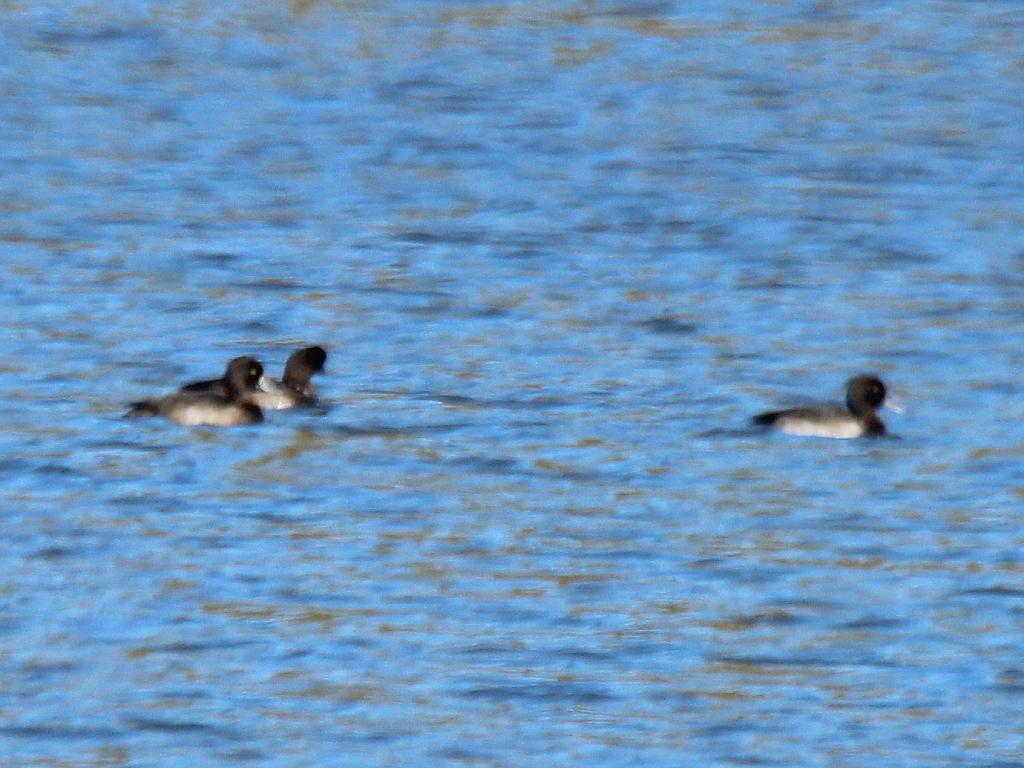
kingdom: Animalia
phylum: Chordata
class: Aves
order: Anseriformes
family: Anatidae
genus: Aythya
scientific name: Aythya fuligula
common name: Tufted duck
